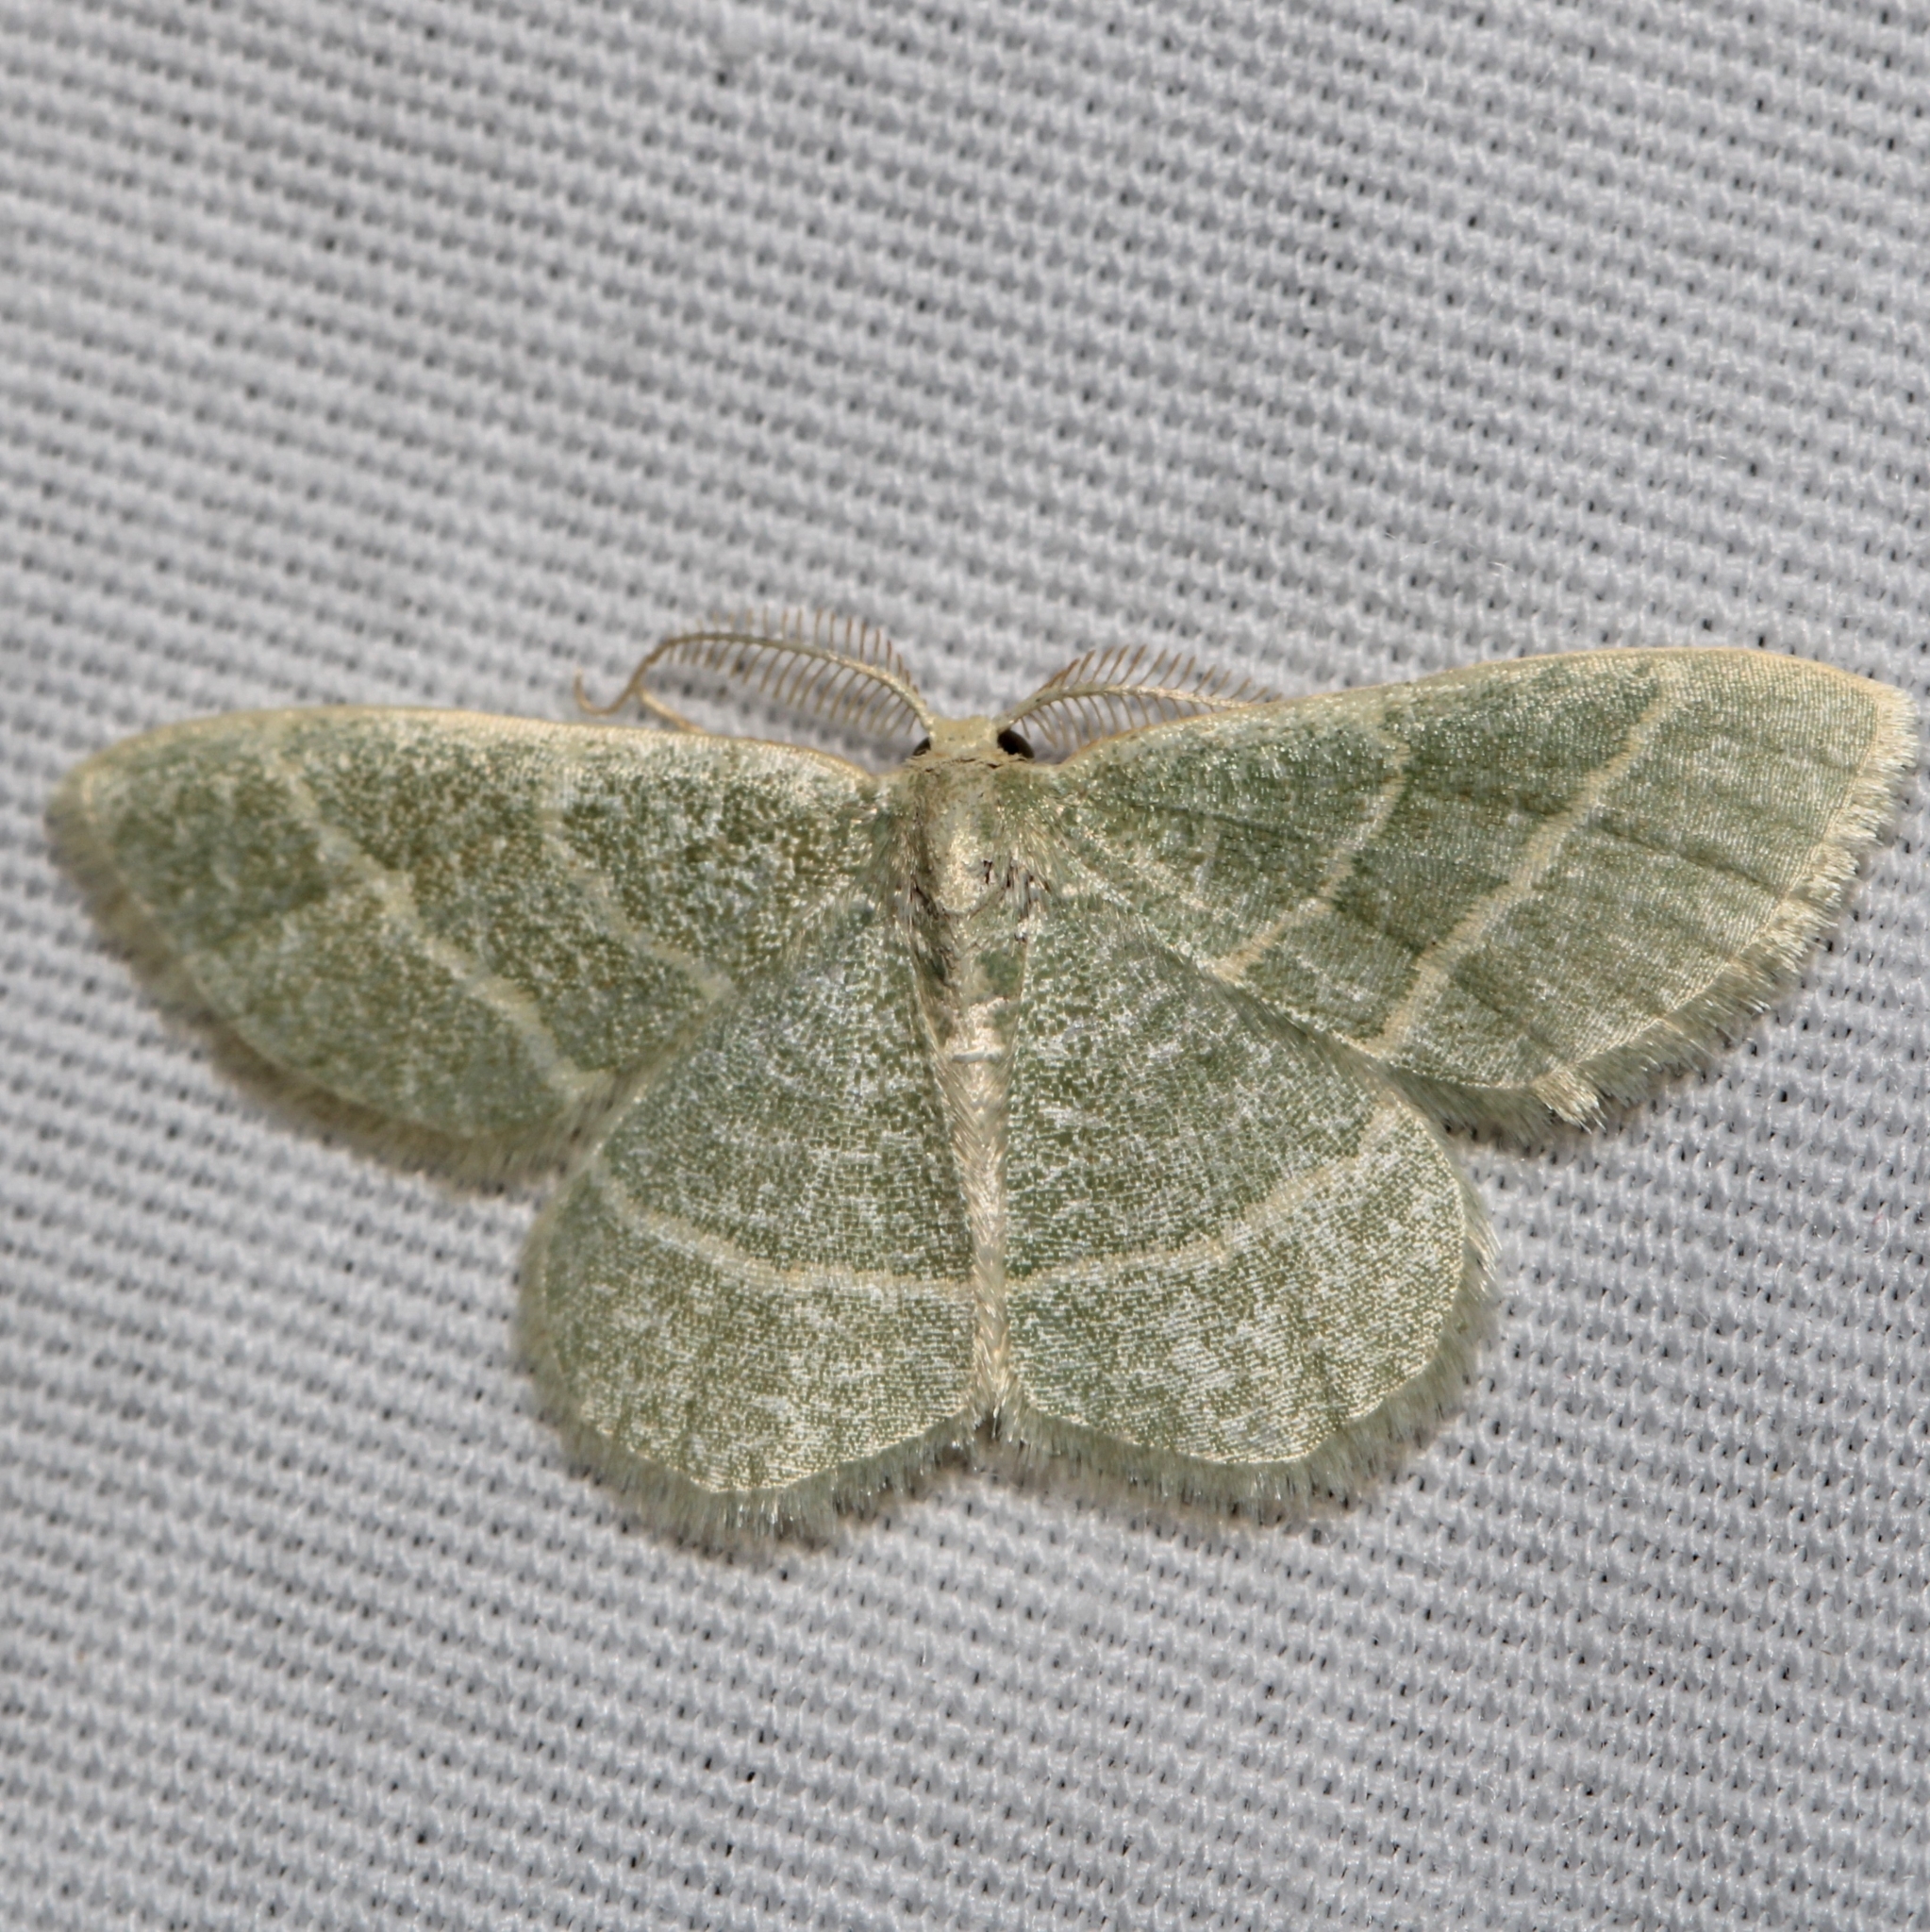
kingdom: Animalia
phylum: Arthropoda
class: Insecta
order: Lepidoptera
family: Geometridae
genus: Chlorochlamys
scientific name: Chlorochlamys chloroleucaria
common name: Blackberry looper
